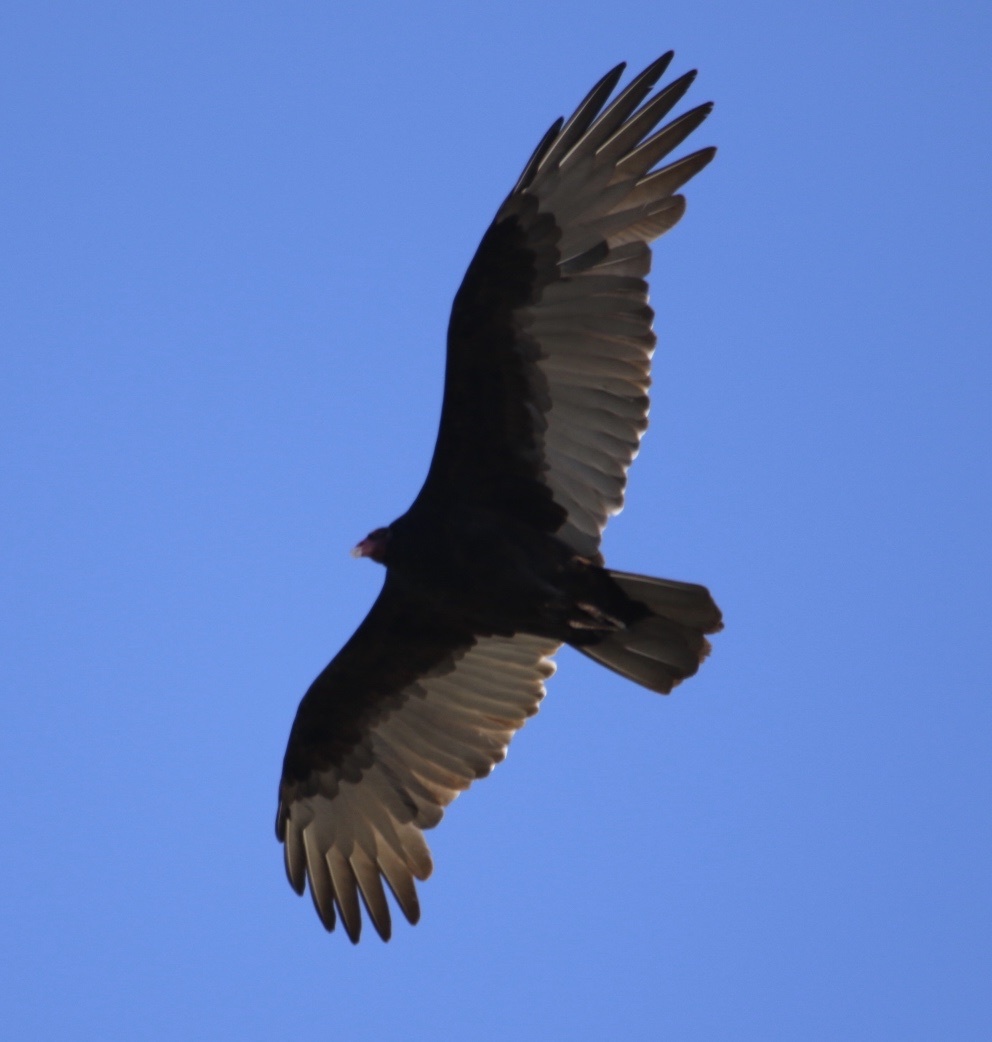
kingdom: Animalia
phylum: Chordata
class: Aves
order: Accipitriformes
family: Cathartidae
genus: Cathartes
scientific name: Cathartes aura
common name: Turkey vulture
